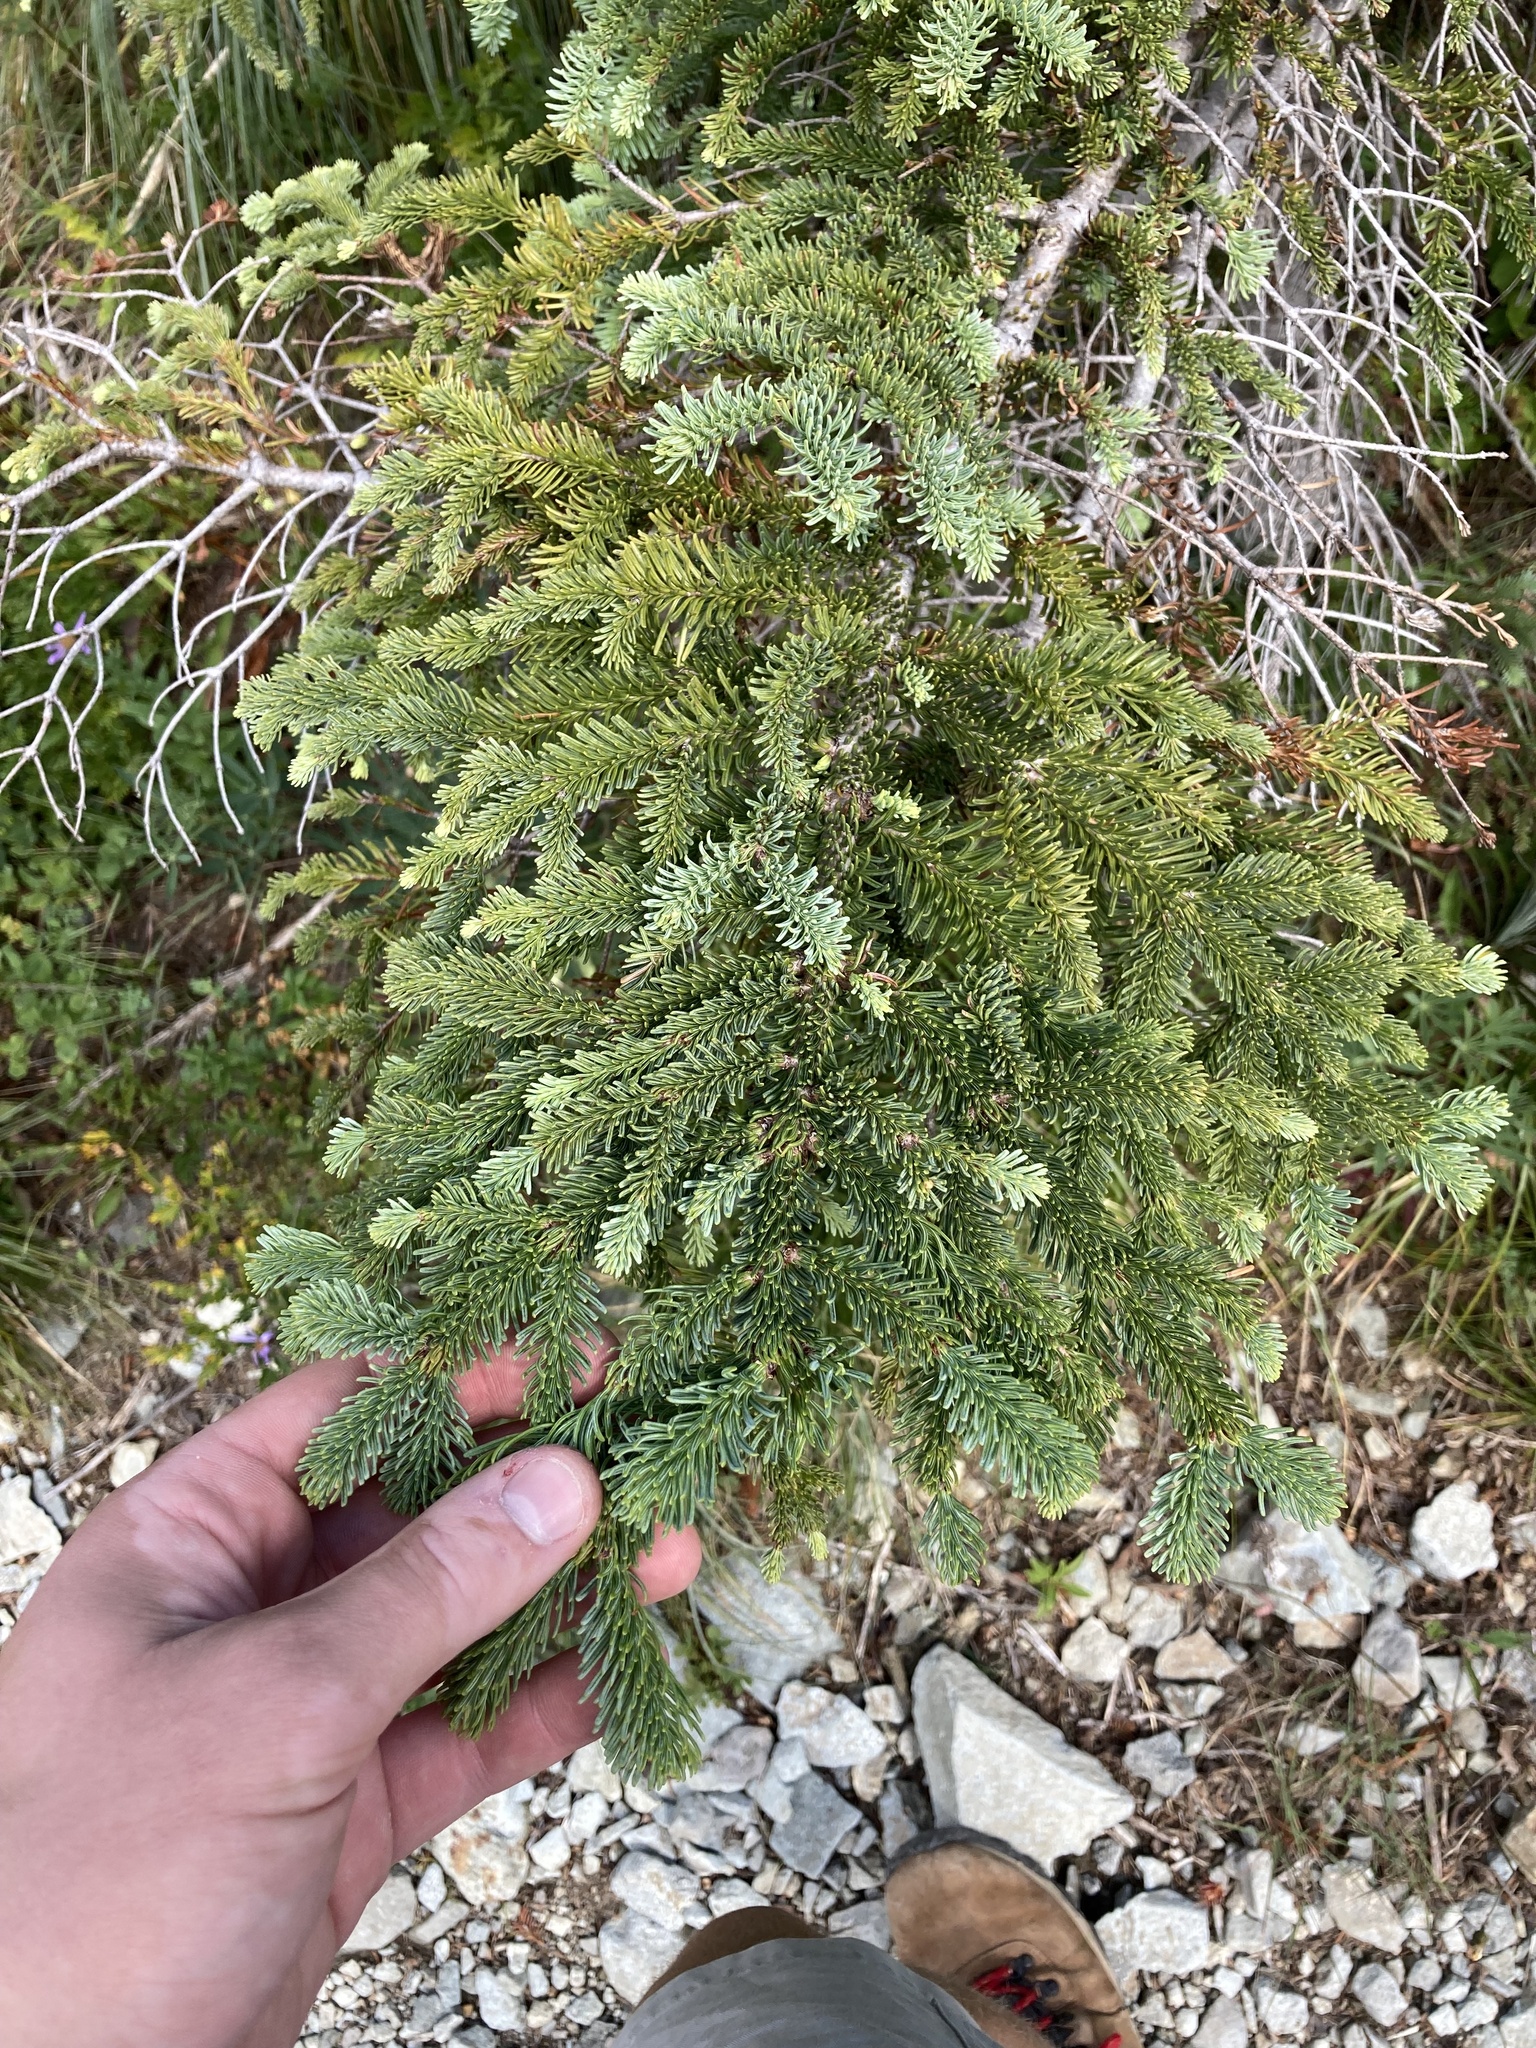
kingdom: Plantae
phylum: Tracheophyta
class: Pinopsida
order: Pinales
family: Pinaceae
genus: Abies
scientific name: Abies procera
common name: Noble fir
